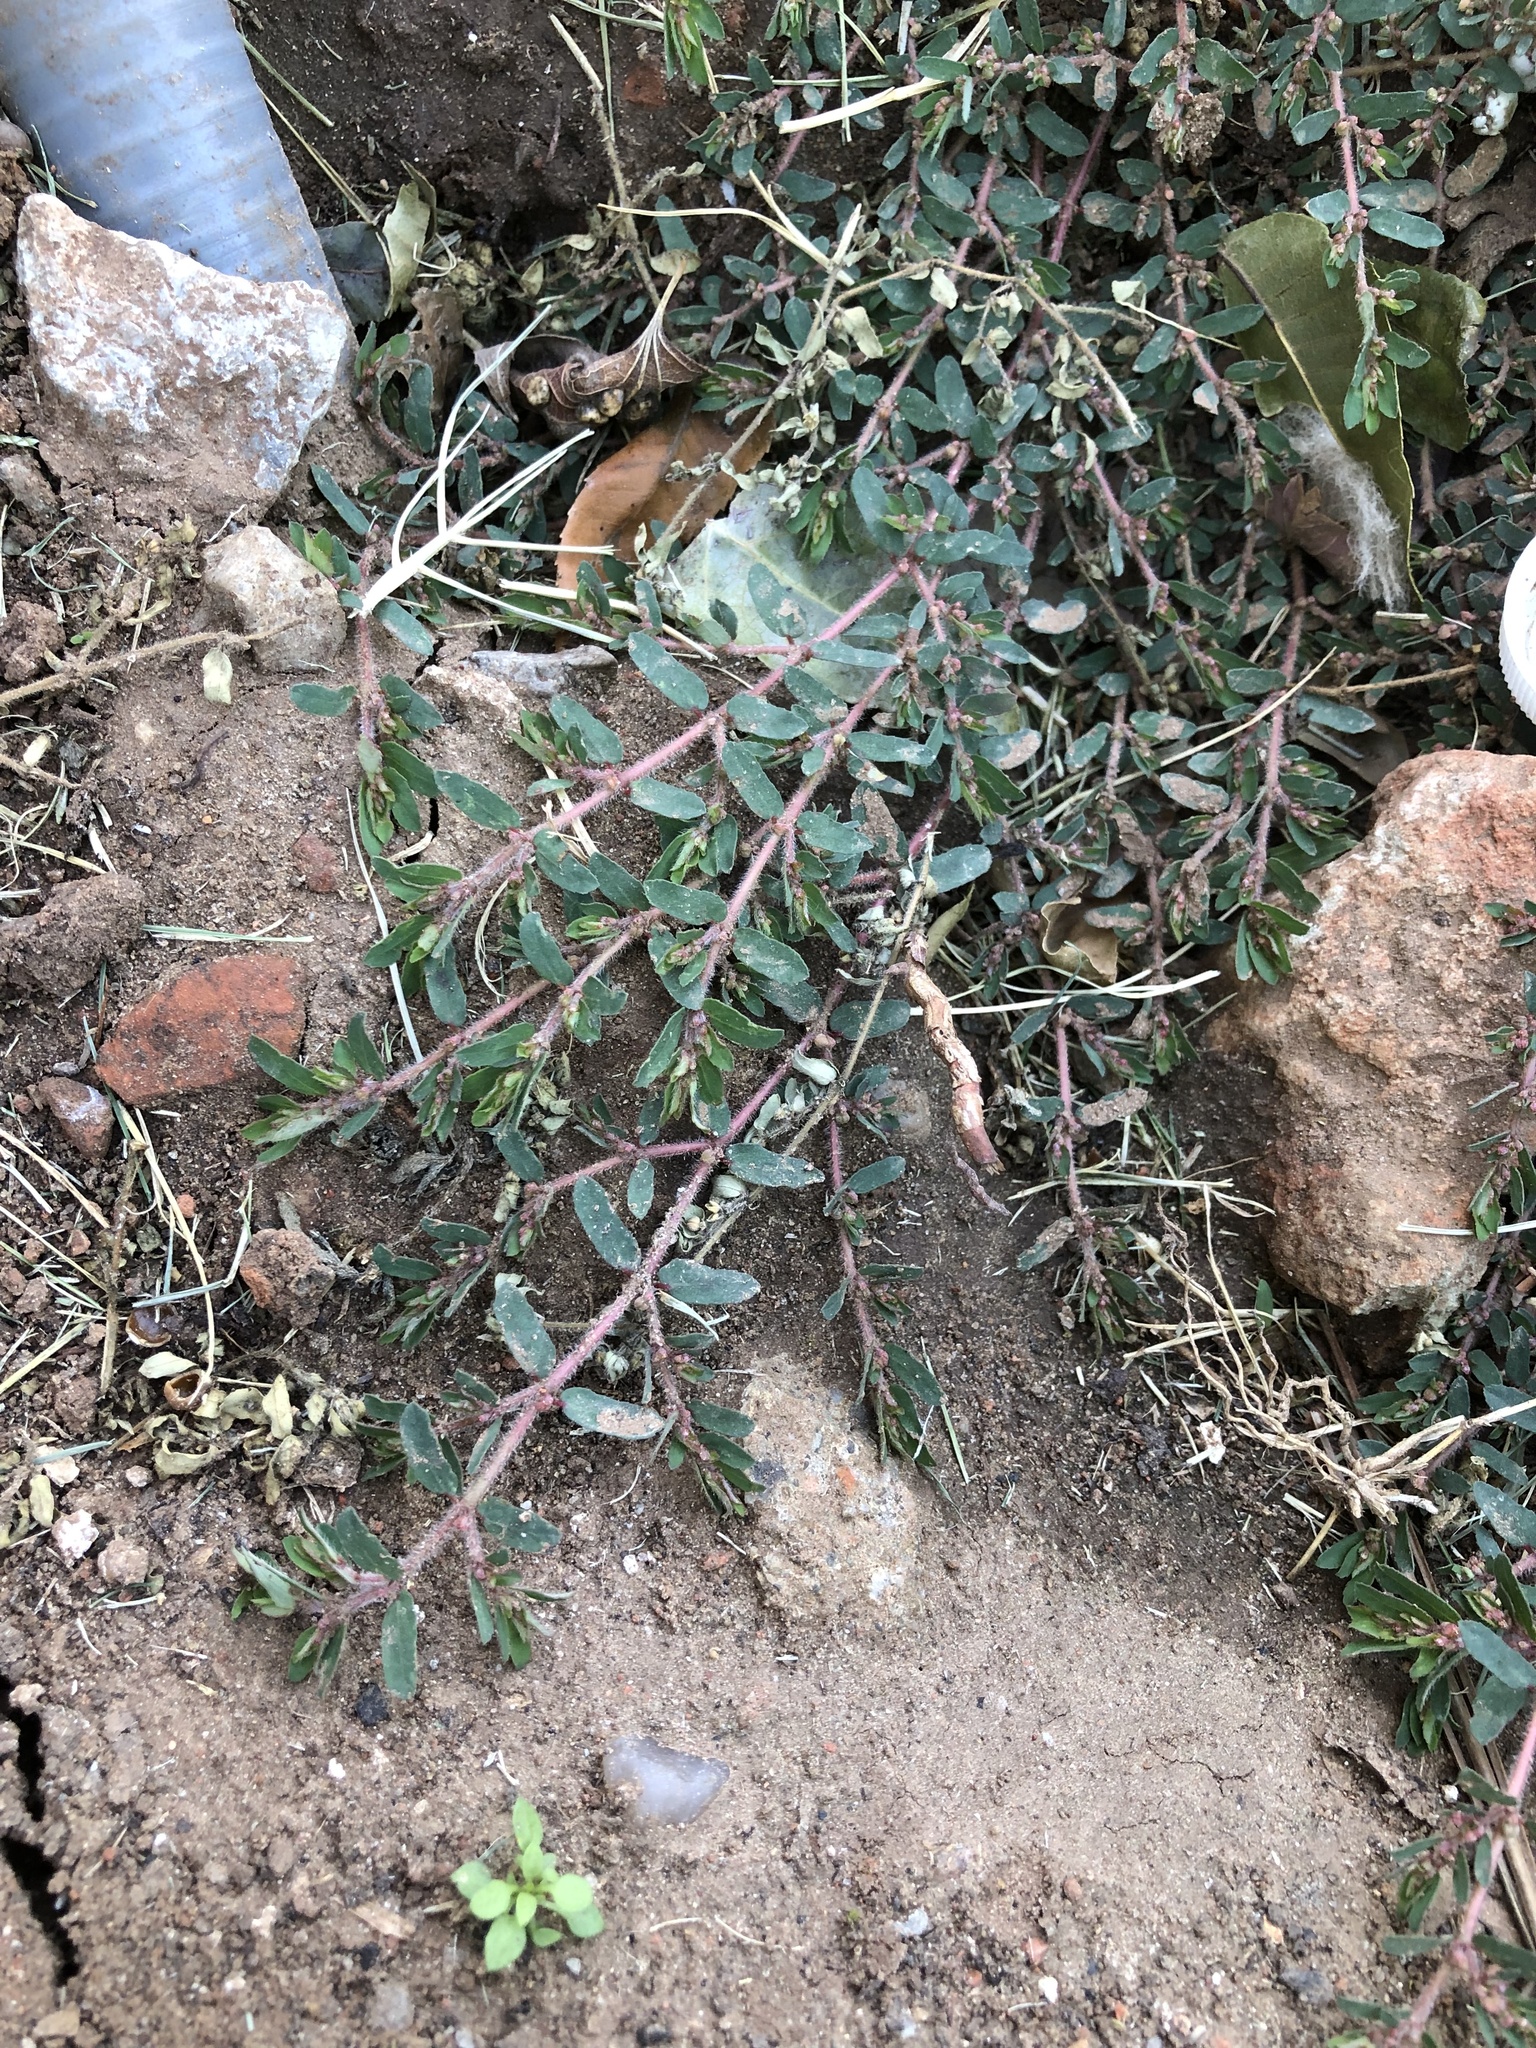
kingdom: Plantae
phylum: Tracheophyta
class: Magnoliopsida
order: Malpighiales
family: Euphorbiaceae
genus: Euphorbia
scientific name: Euphorbia maculata
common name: Spotted spurge
